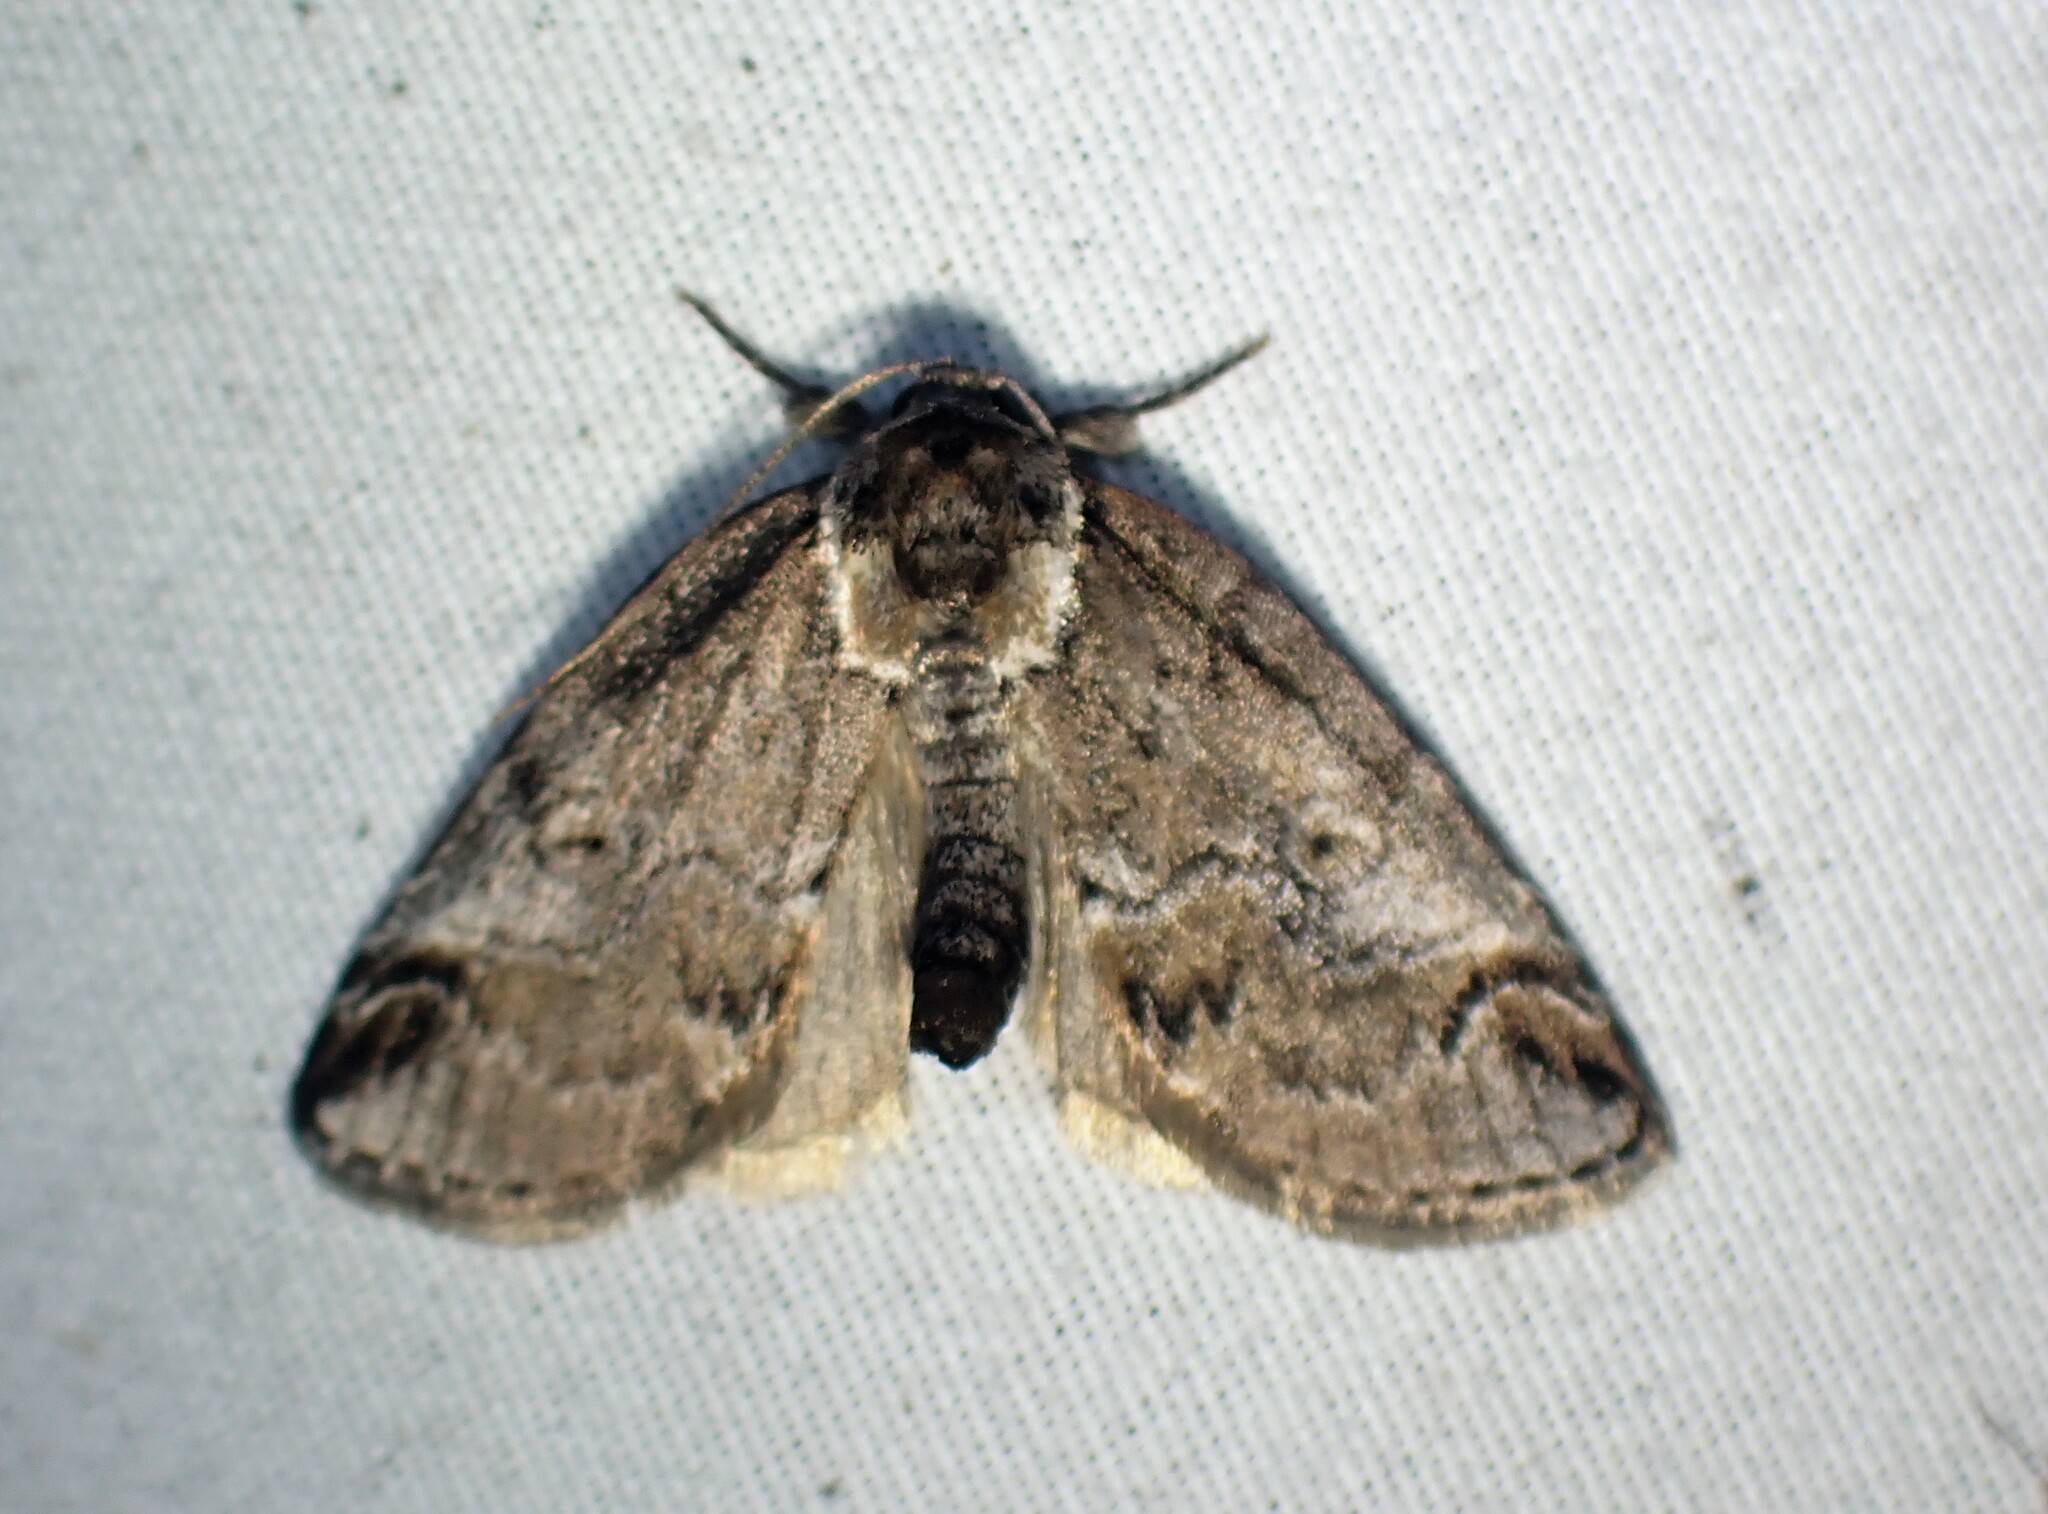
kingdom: Animalia
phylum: Arthropoda
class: Insecta
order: Lepidoptera
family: Nolidae
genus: Baileya
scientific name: Baileya ophthalmica
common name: Eyed baileya moth
